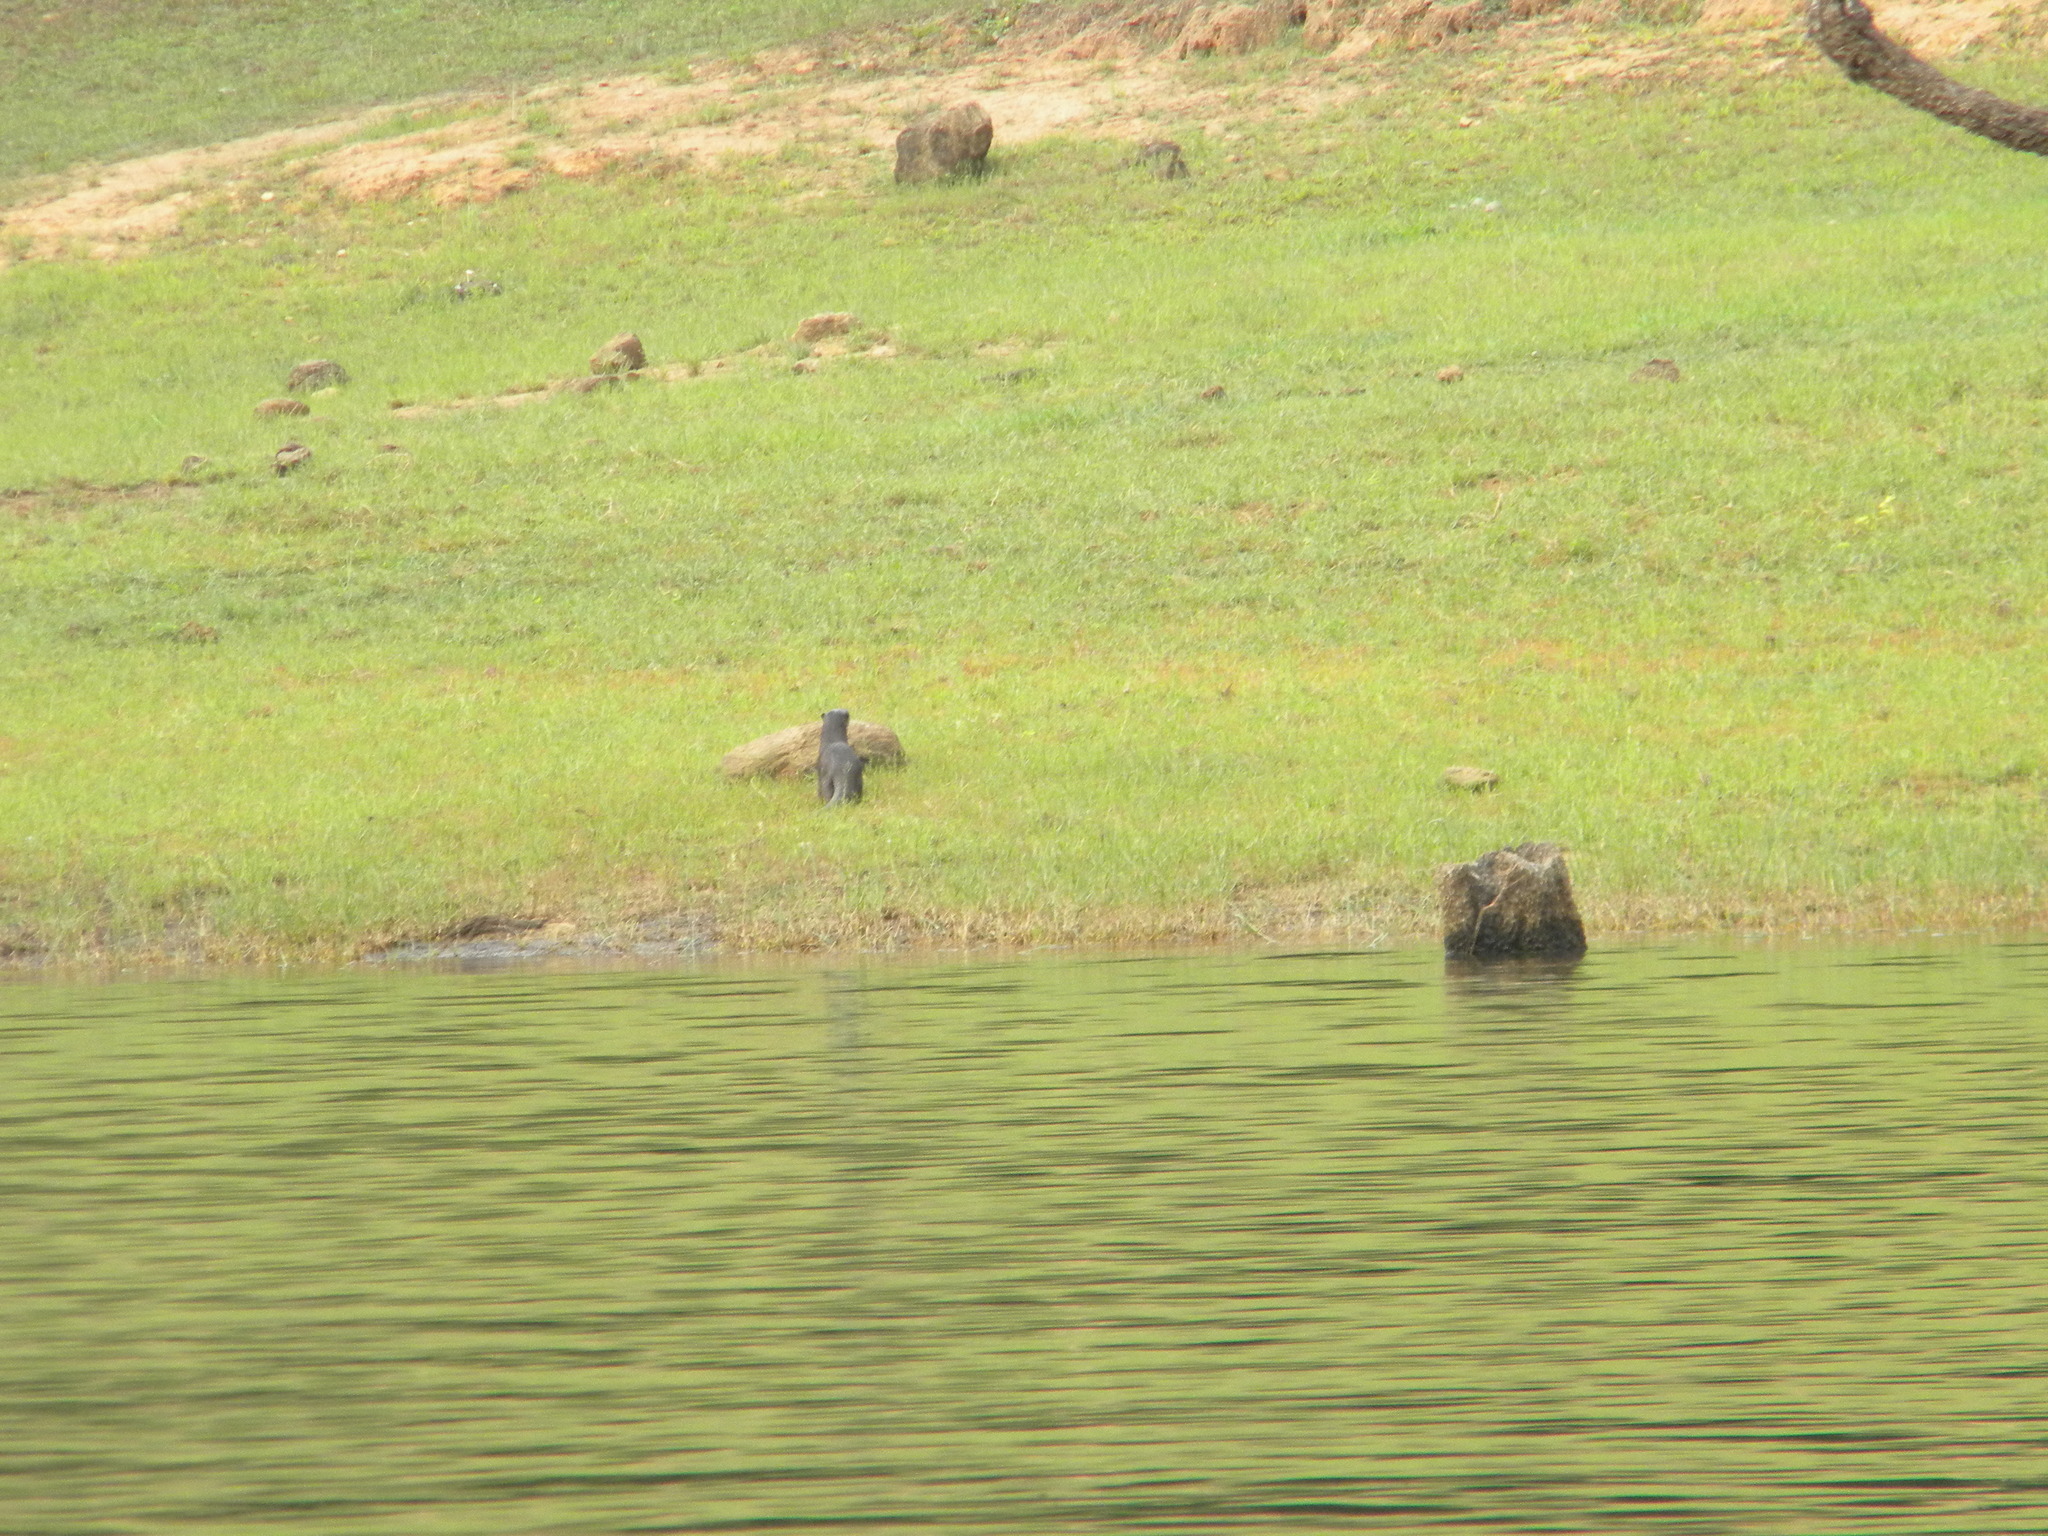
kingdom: Animalia
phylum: Chordata
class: Mammalia
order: Carnivora
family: Mustelidae
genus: Lutrogale
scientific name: Lutrogale perspicillata
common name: Smooth-coated otter
